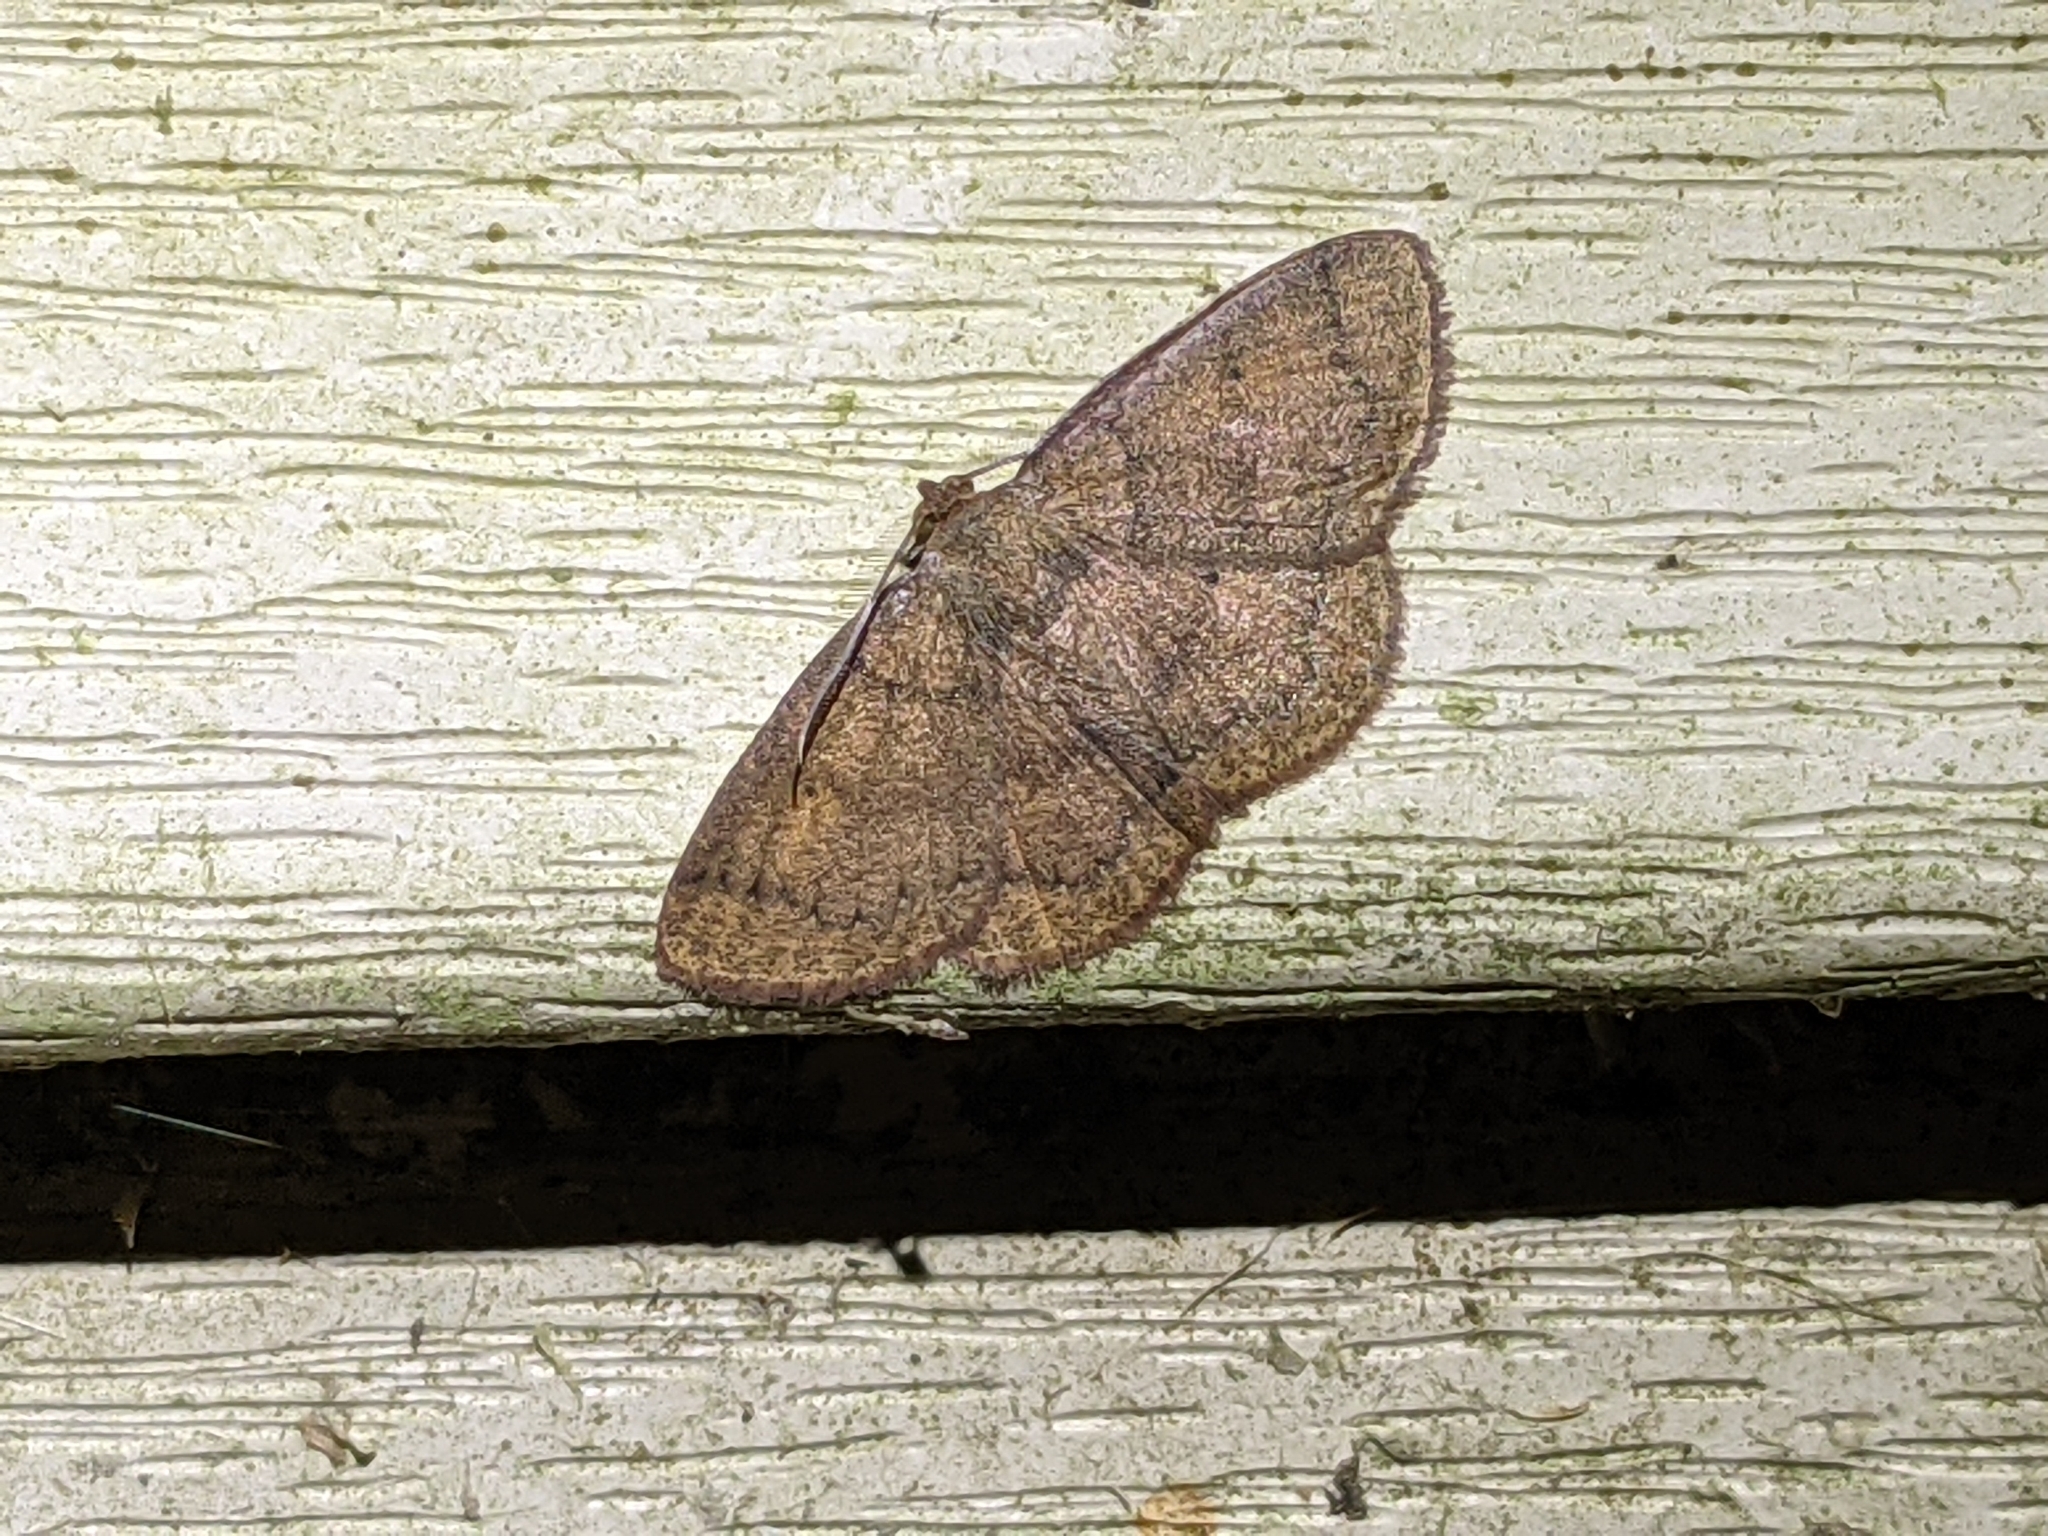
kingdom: Animalia
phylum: Arthropoda
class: Insecta
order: Lepidoptera
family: Geometridae
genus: Ilexia
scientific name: Ilexia intractata
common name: Black-dotted ruddy moth
